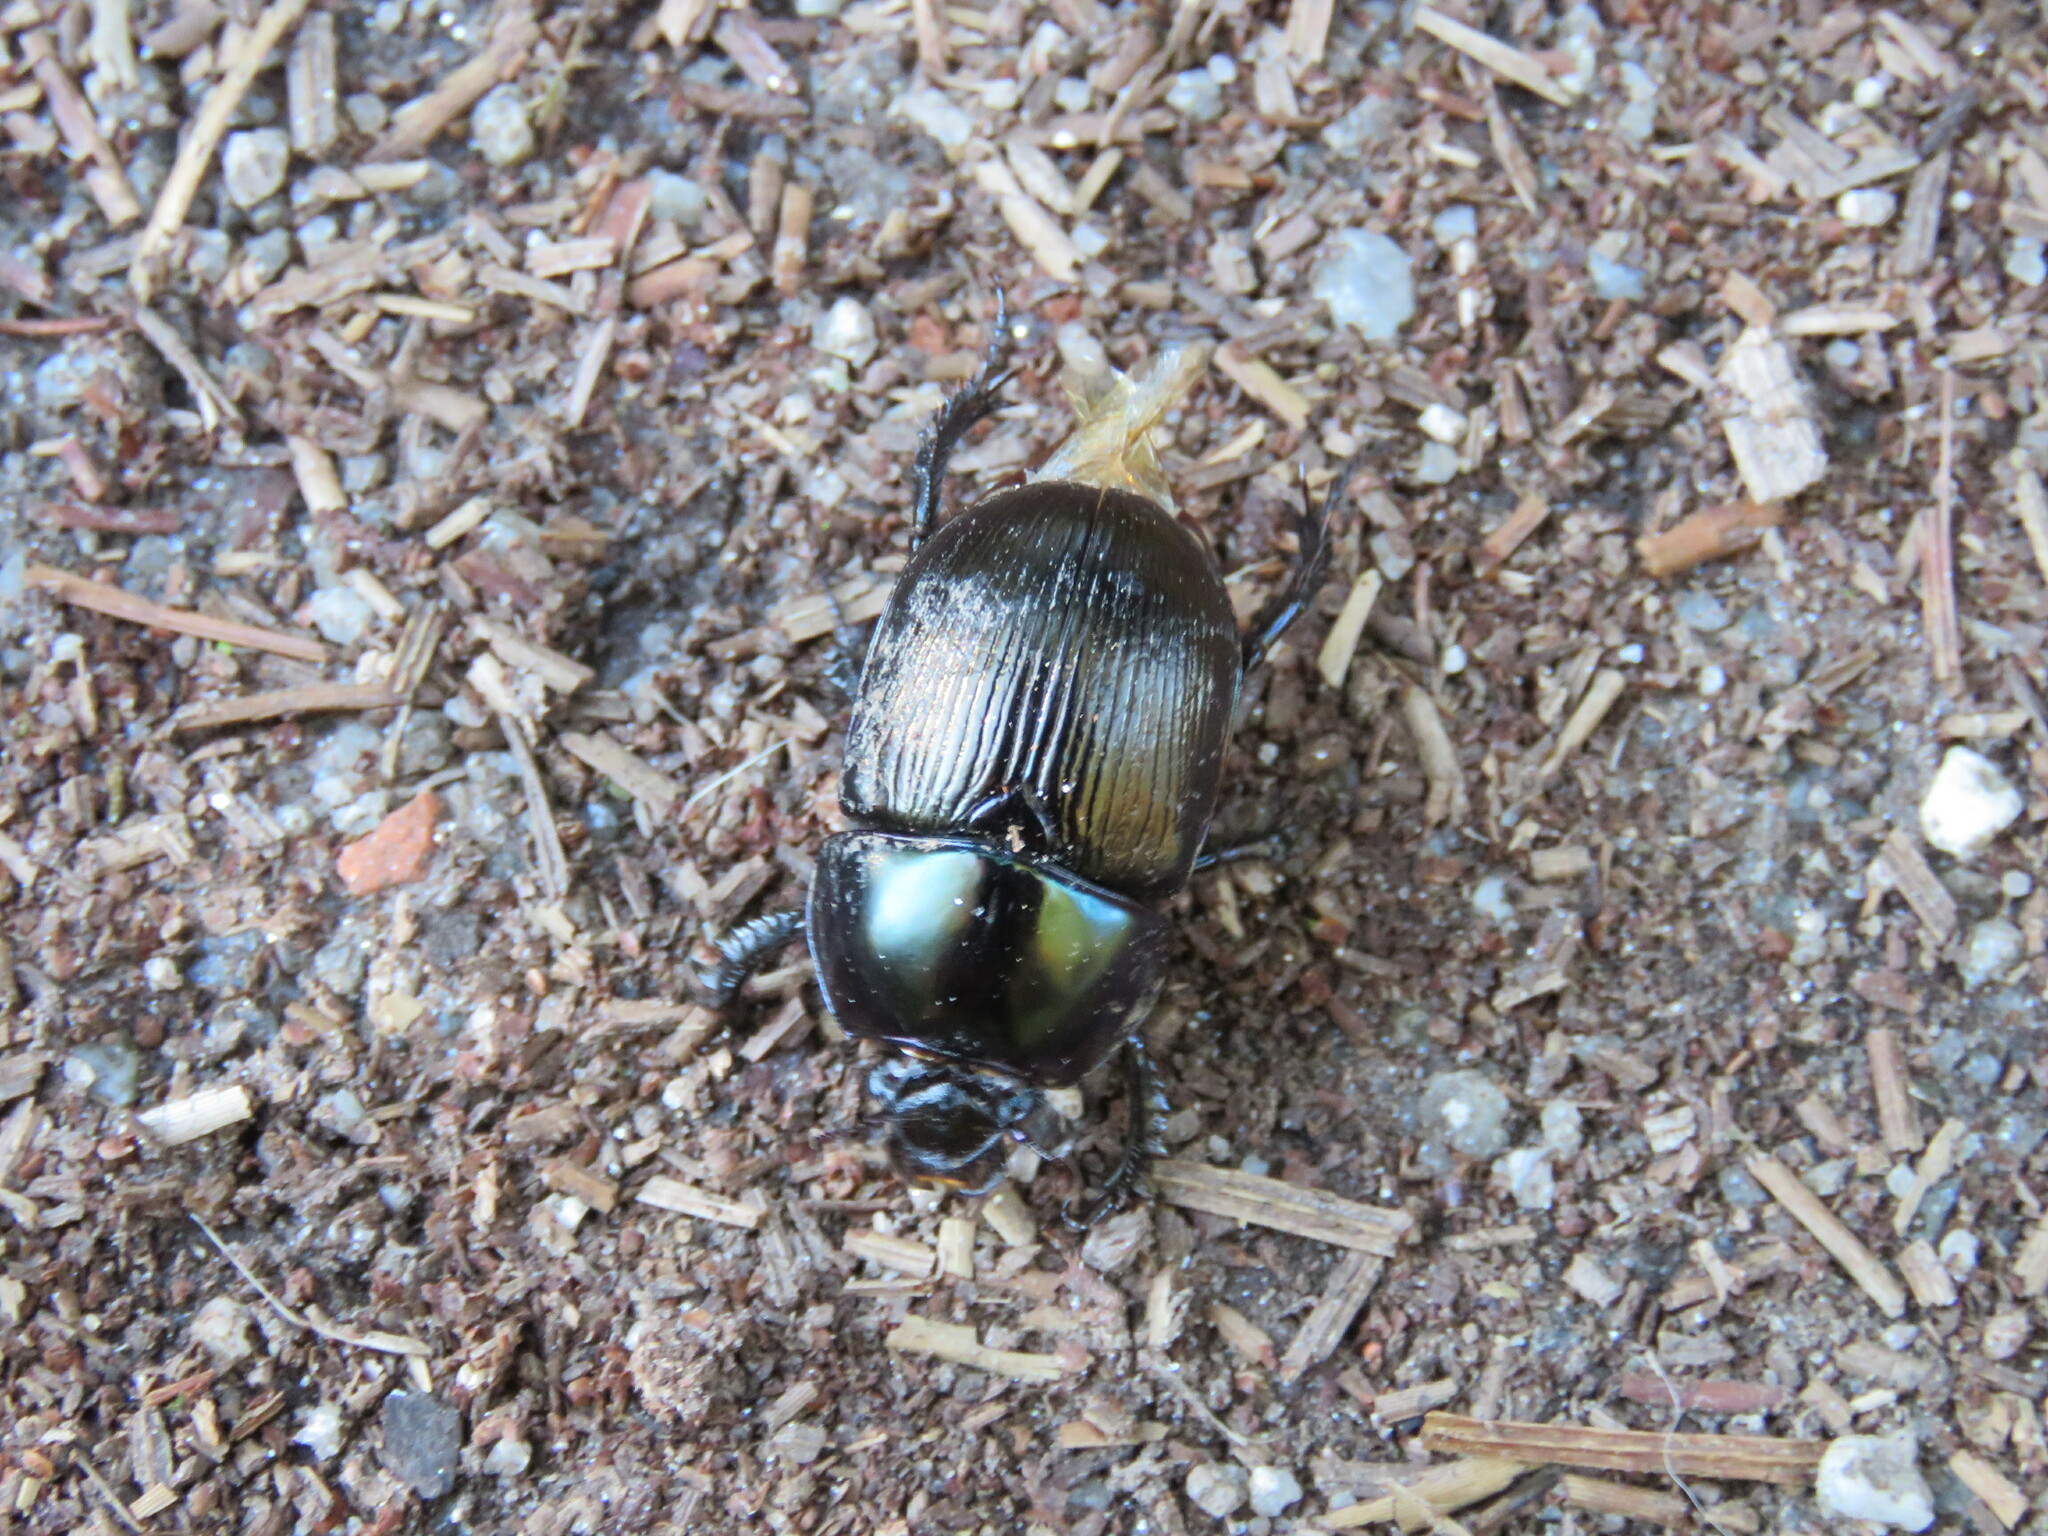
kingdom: Animalia
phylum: Arthropoda
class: Insecta
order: Coleoptera
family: Geotrupidae
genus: Geotrupes
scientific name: Geotrupes mutator
